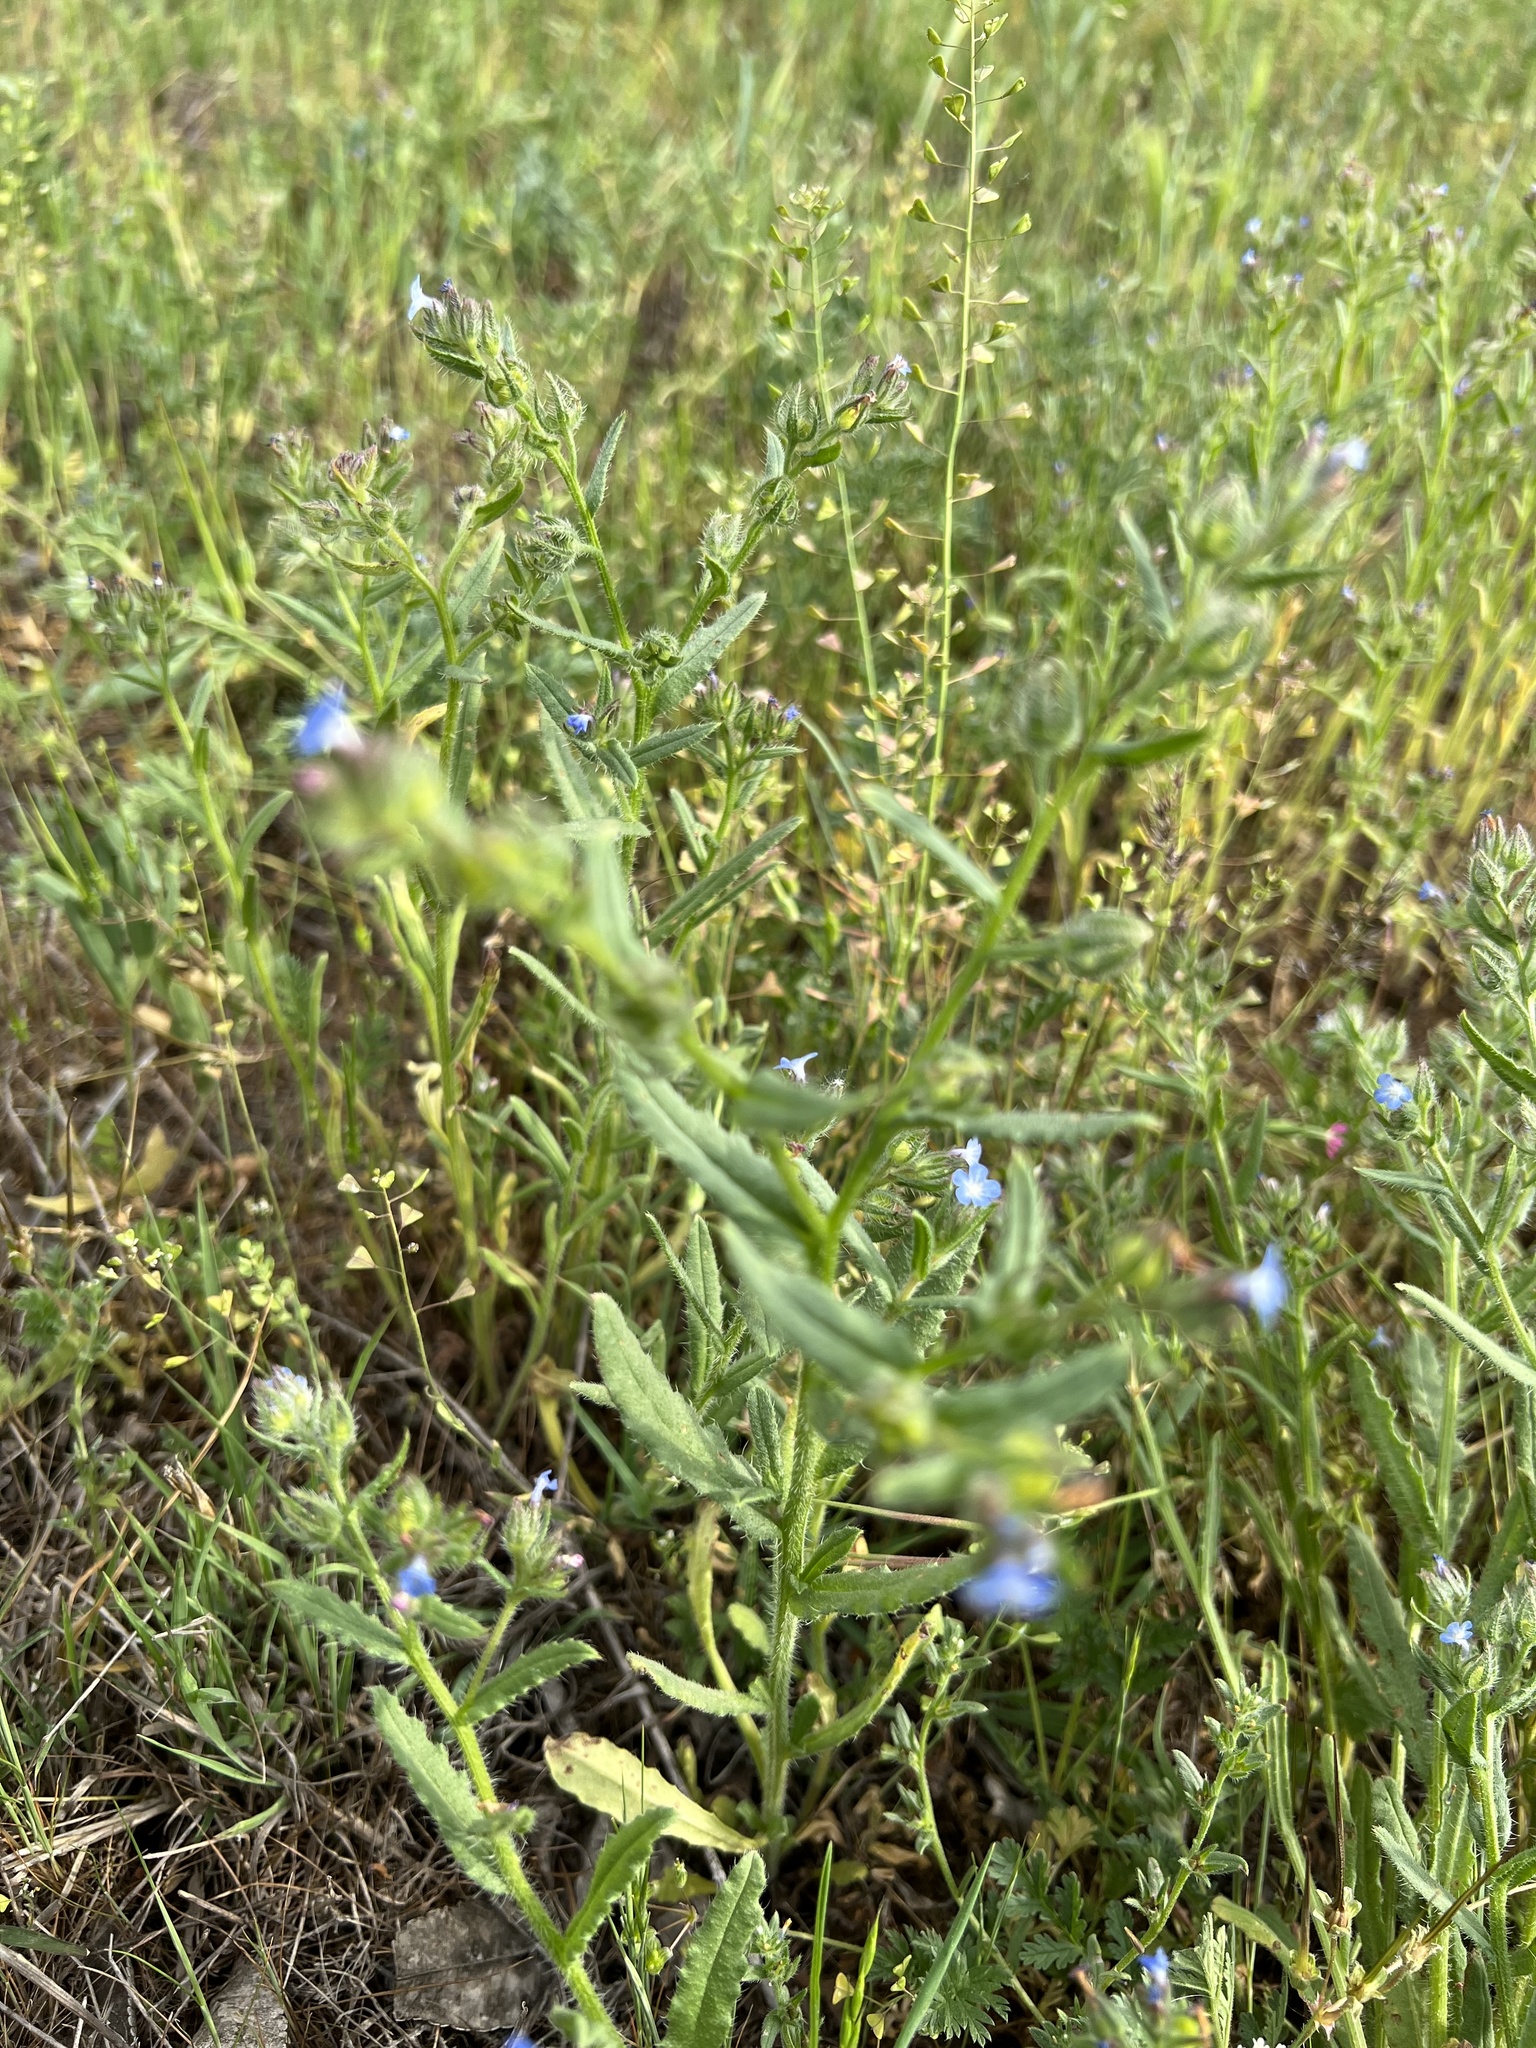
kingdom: Plantae
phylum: Tracheophyta
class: Magnoliopsida
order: Boraginales
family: Boraginaceae
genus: Lycopsis
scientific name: Lycopsis arvensis
